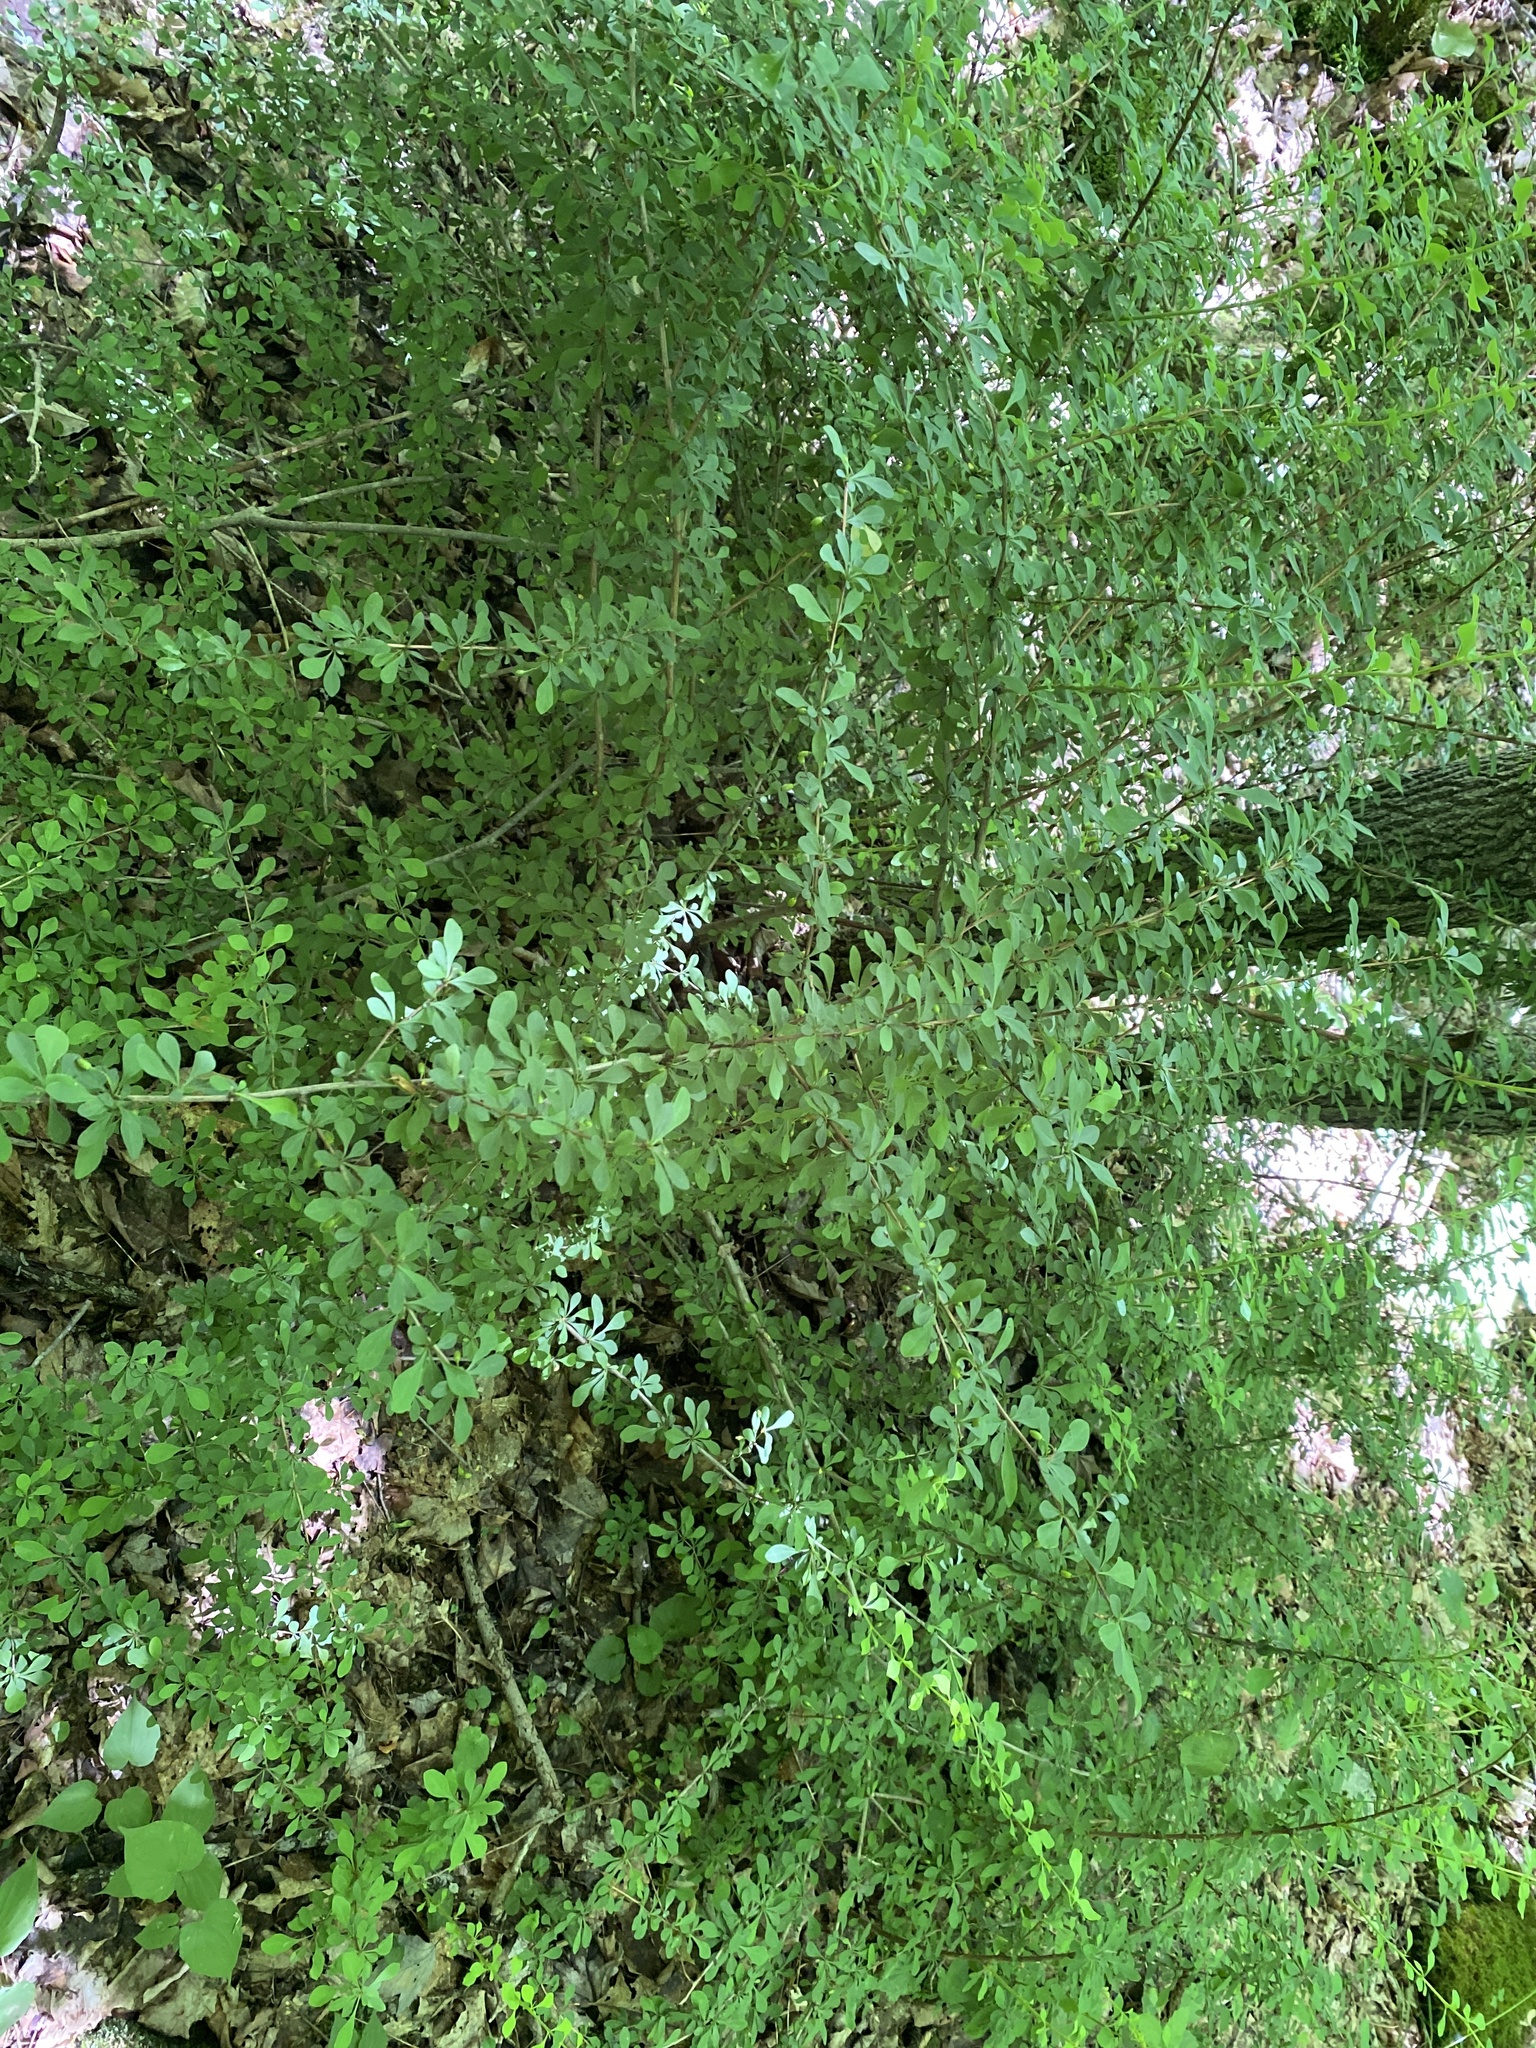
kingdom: Plantae
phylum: Tracheophyta
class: Magnoliopsida
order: Ranunculales
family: Berberidaceae
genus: Berberis
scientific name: Berberis thunbergii
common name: Japanese barberry
